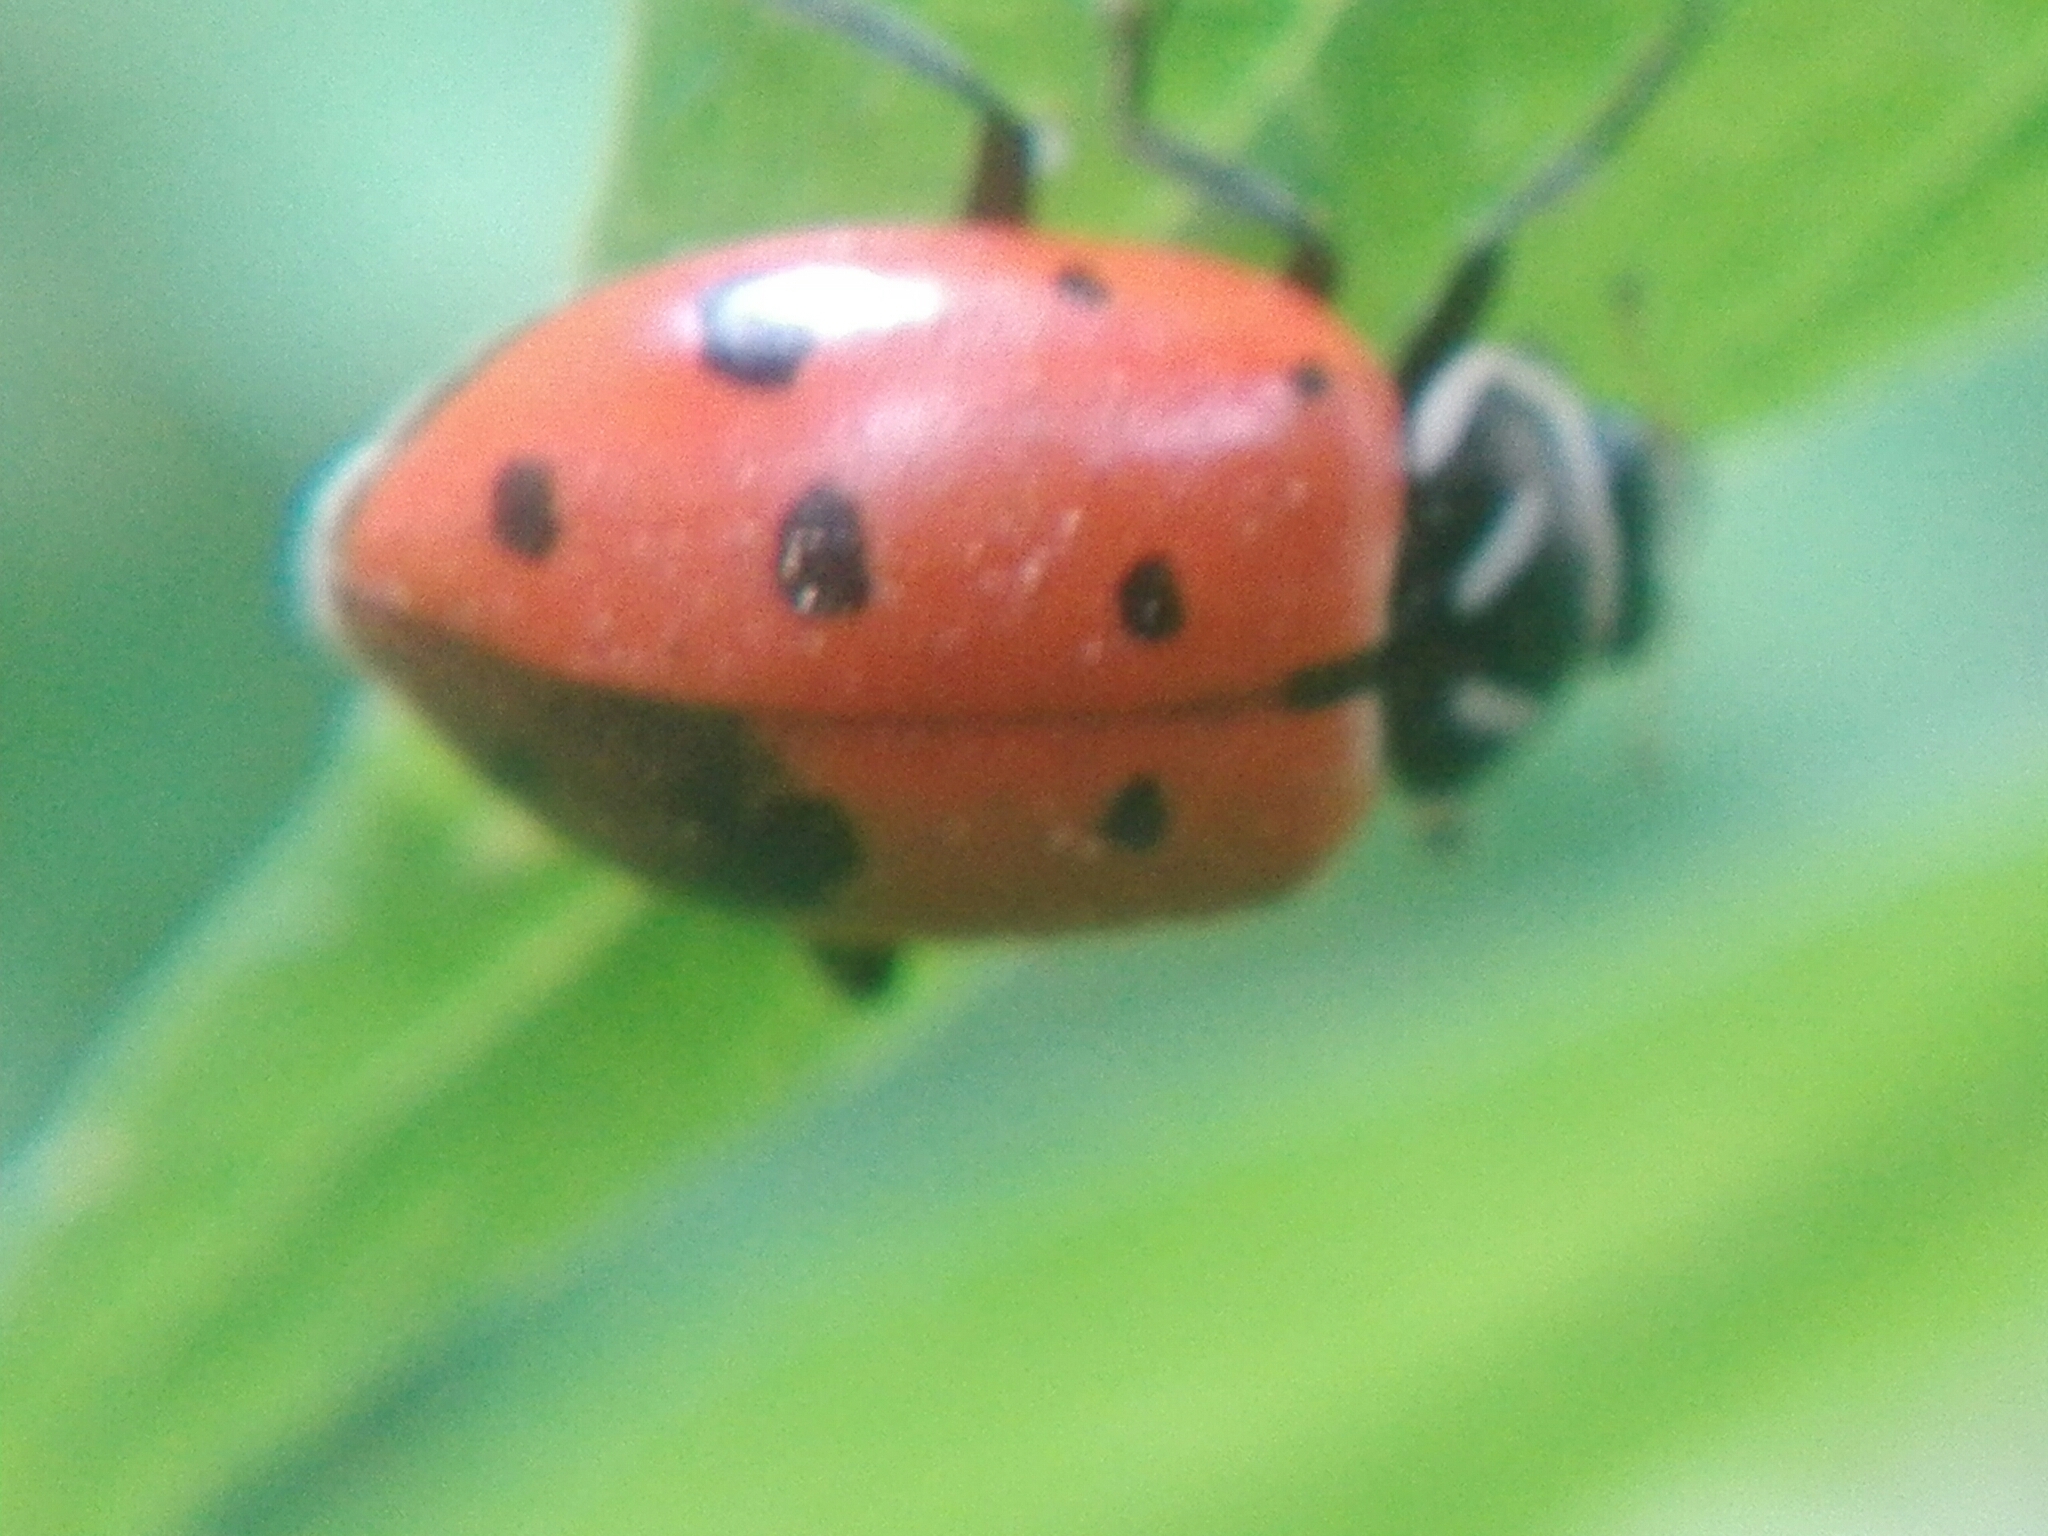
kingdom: Animalia
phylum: Arthropoda
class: Insecta
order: Coleoptera
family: Coccinellidae
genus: Hippodamia
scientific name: Hippodamia convergens
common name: Convergent lady beetle
